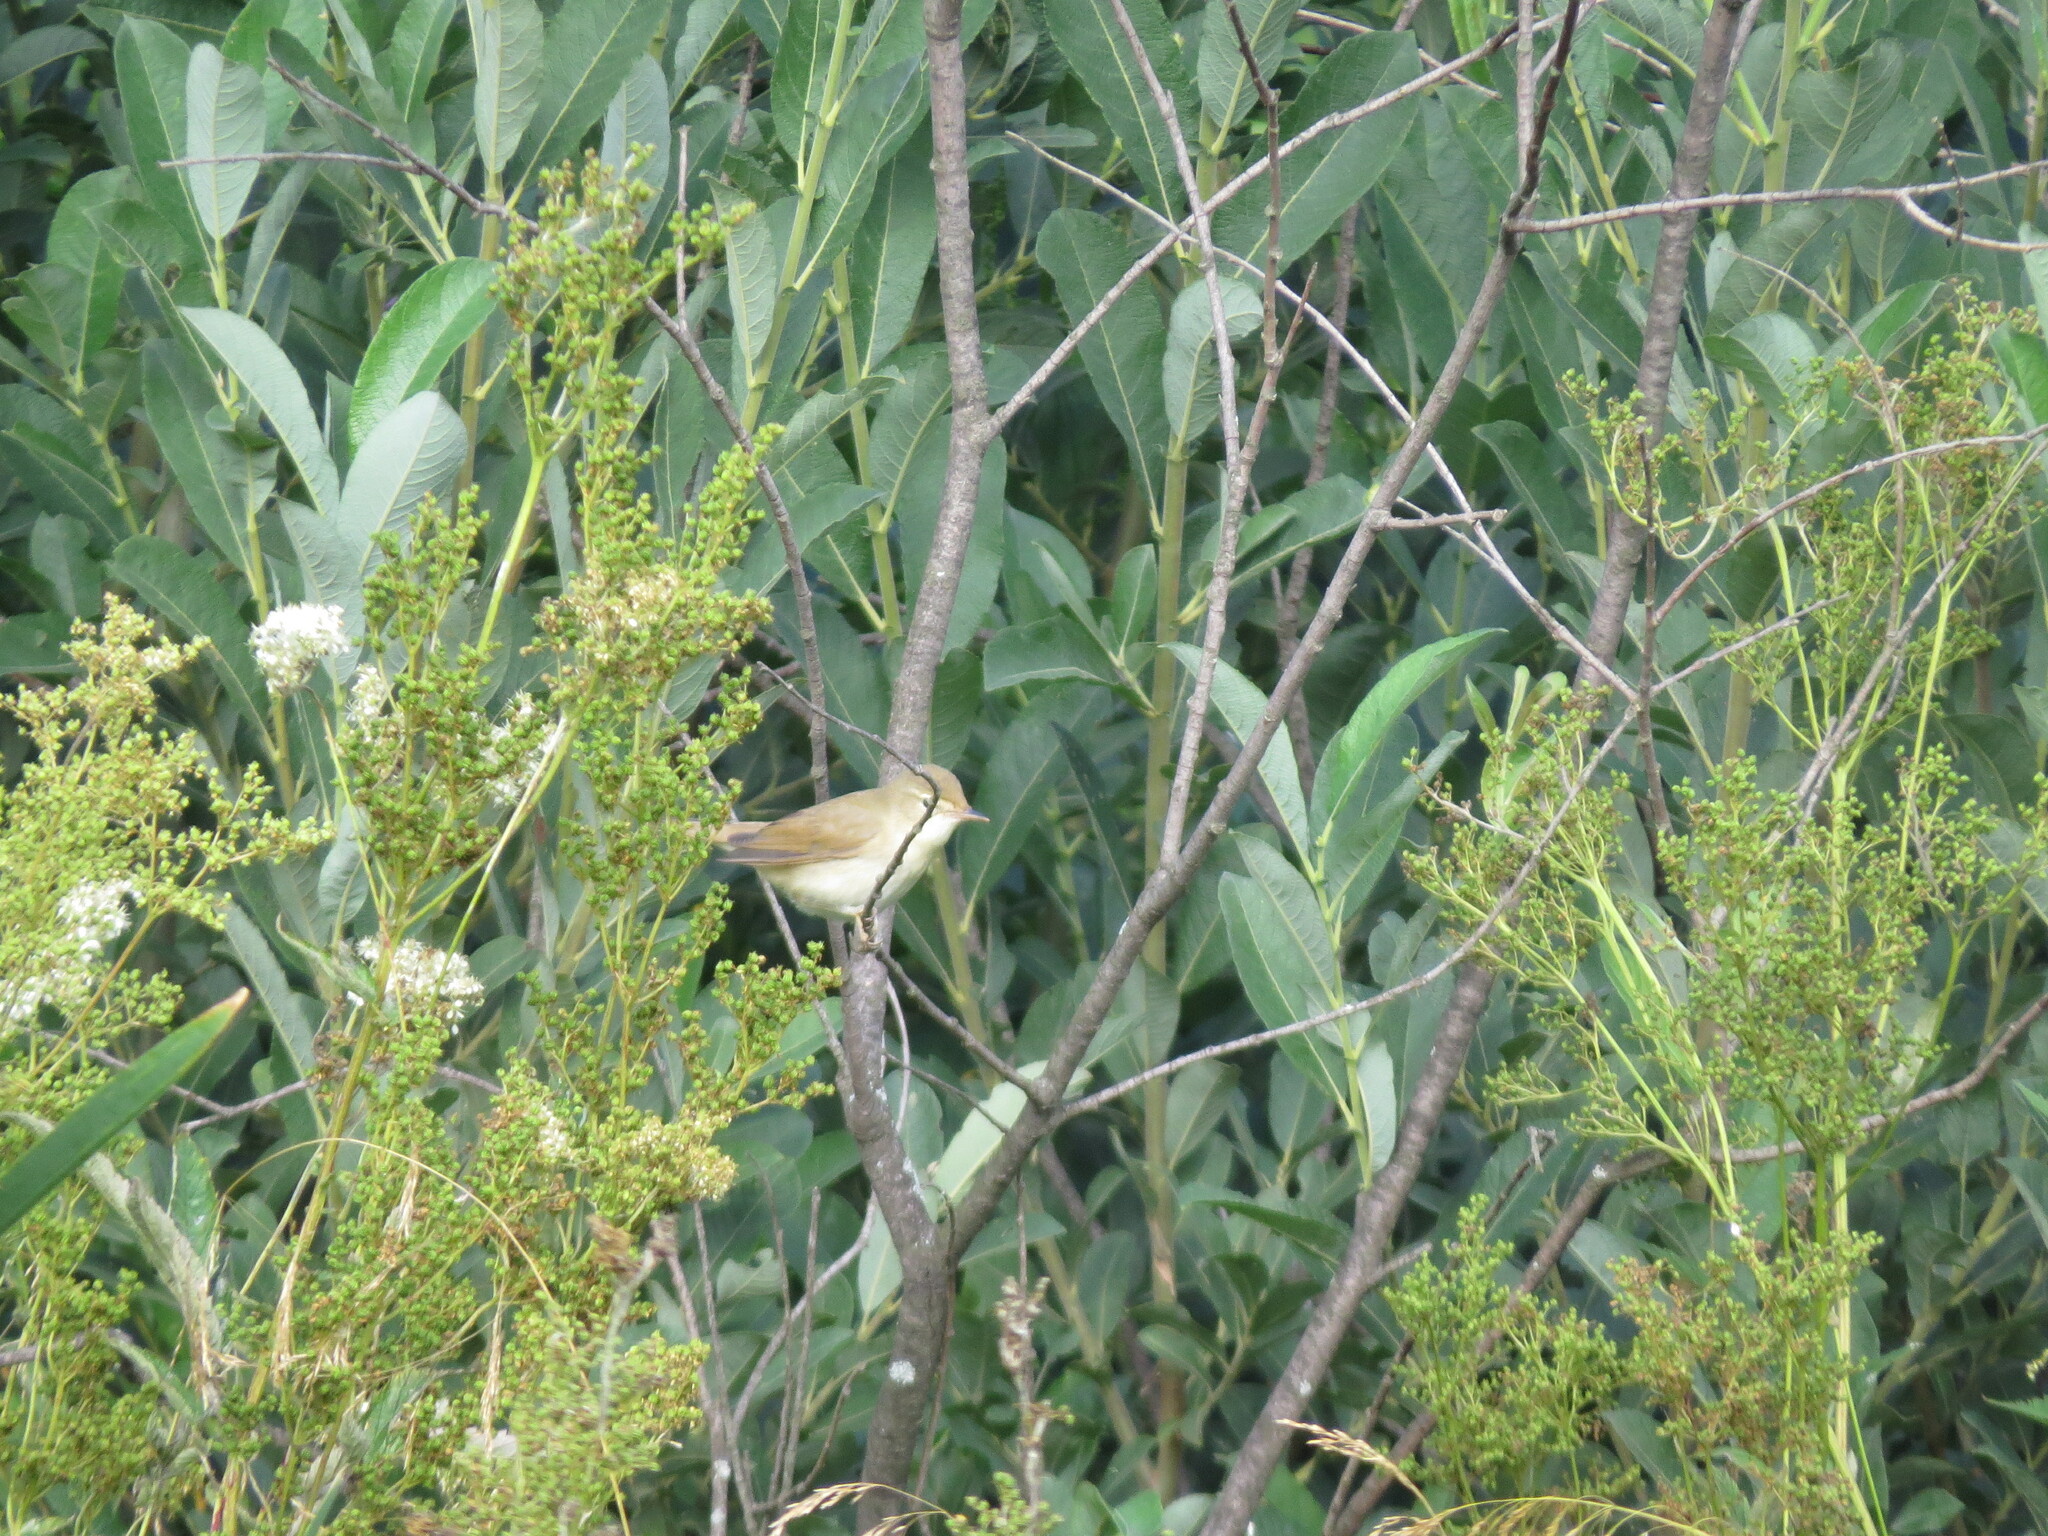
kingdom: Animalia
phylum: Chordata
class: Aves
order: Passeriformes
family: Acrocephalidae
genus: Acrocephalus
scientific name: Acrocephalus dumetorum
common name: Blyth's reed warbler
